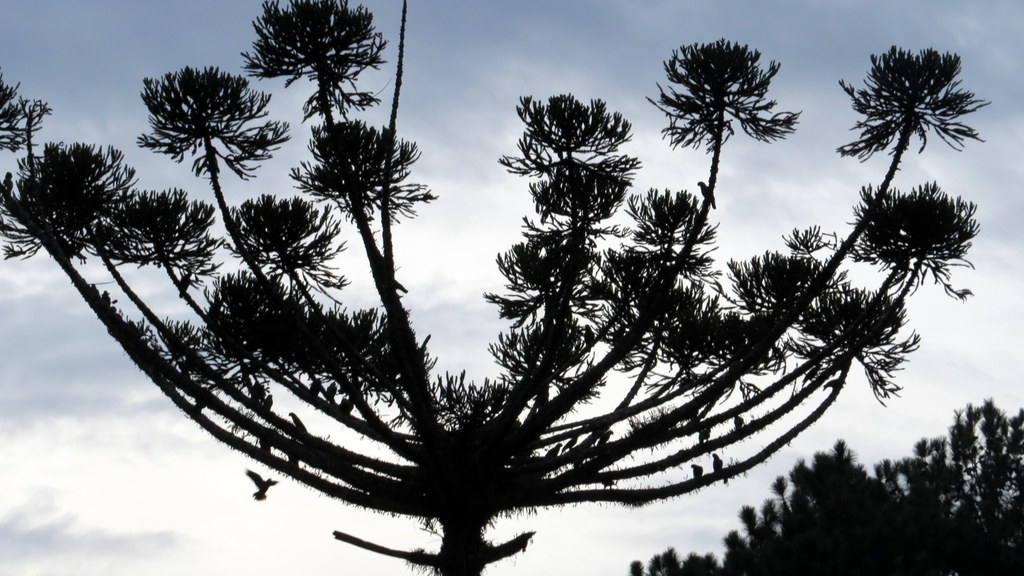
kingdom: Plantae
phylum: Tracheophyta
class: Pinopsida
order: Pinales
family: Araucariaceae
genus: Araucaria
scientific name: Araucaria angustifolia
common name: Candelabra tree
